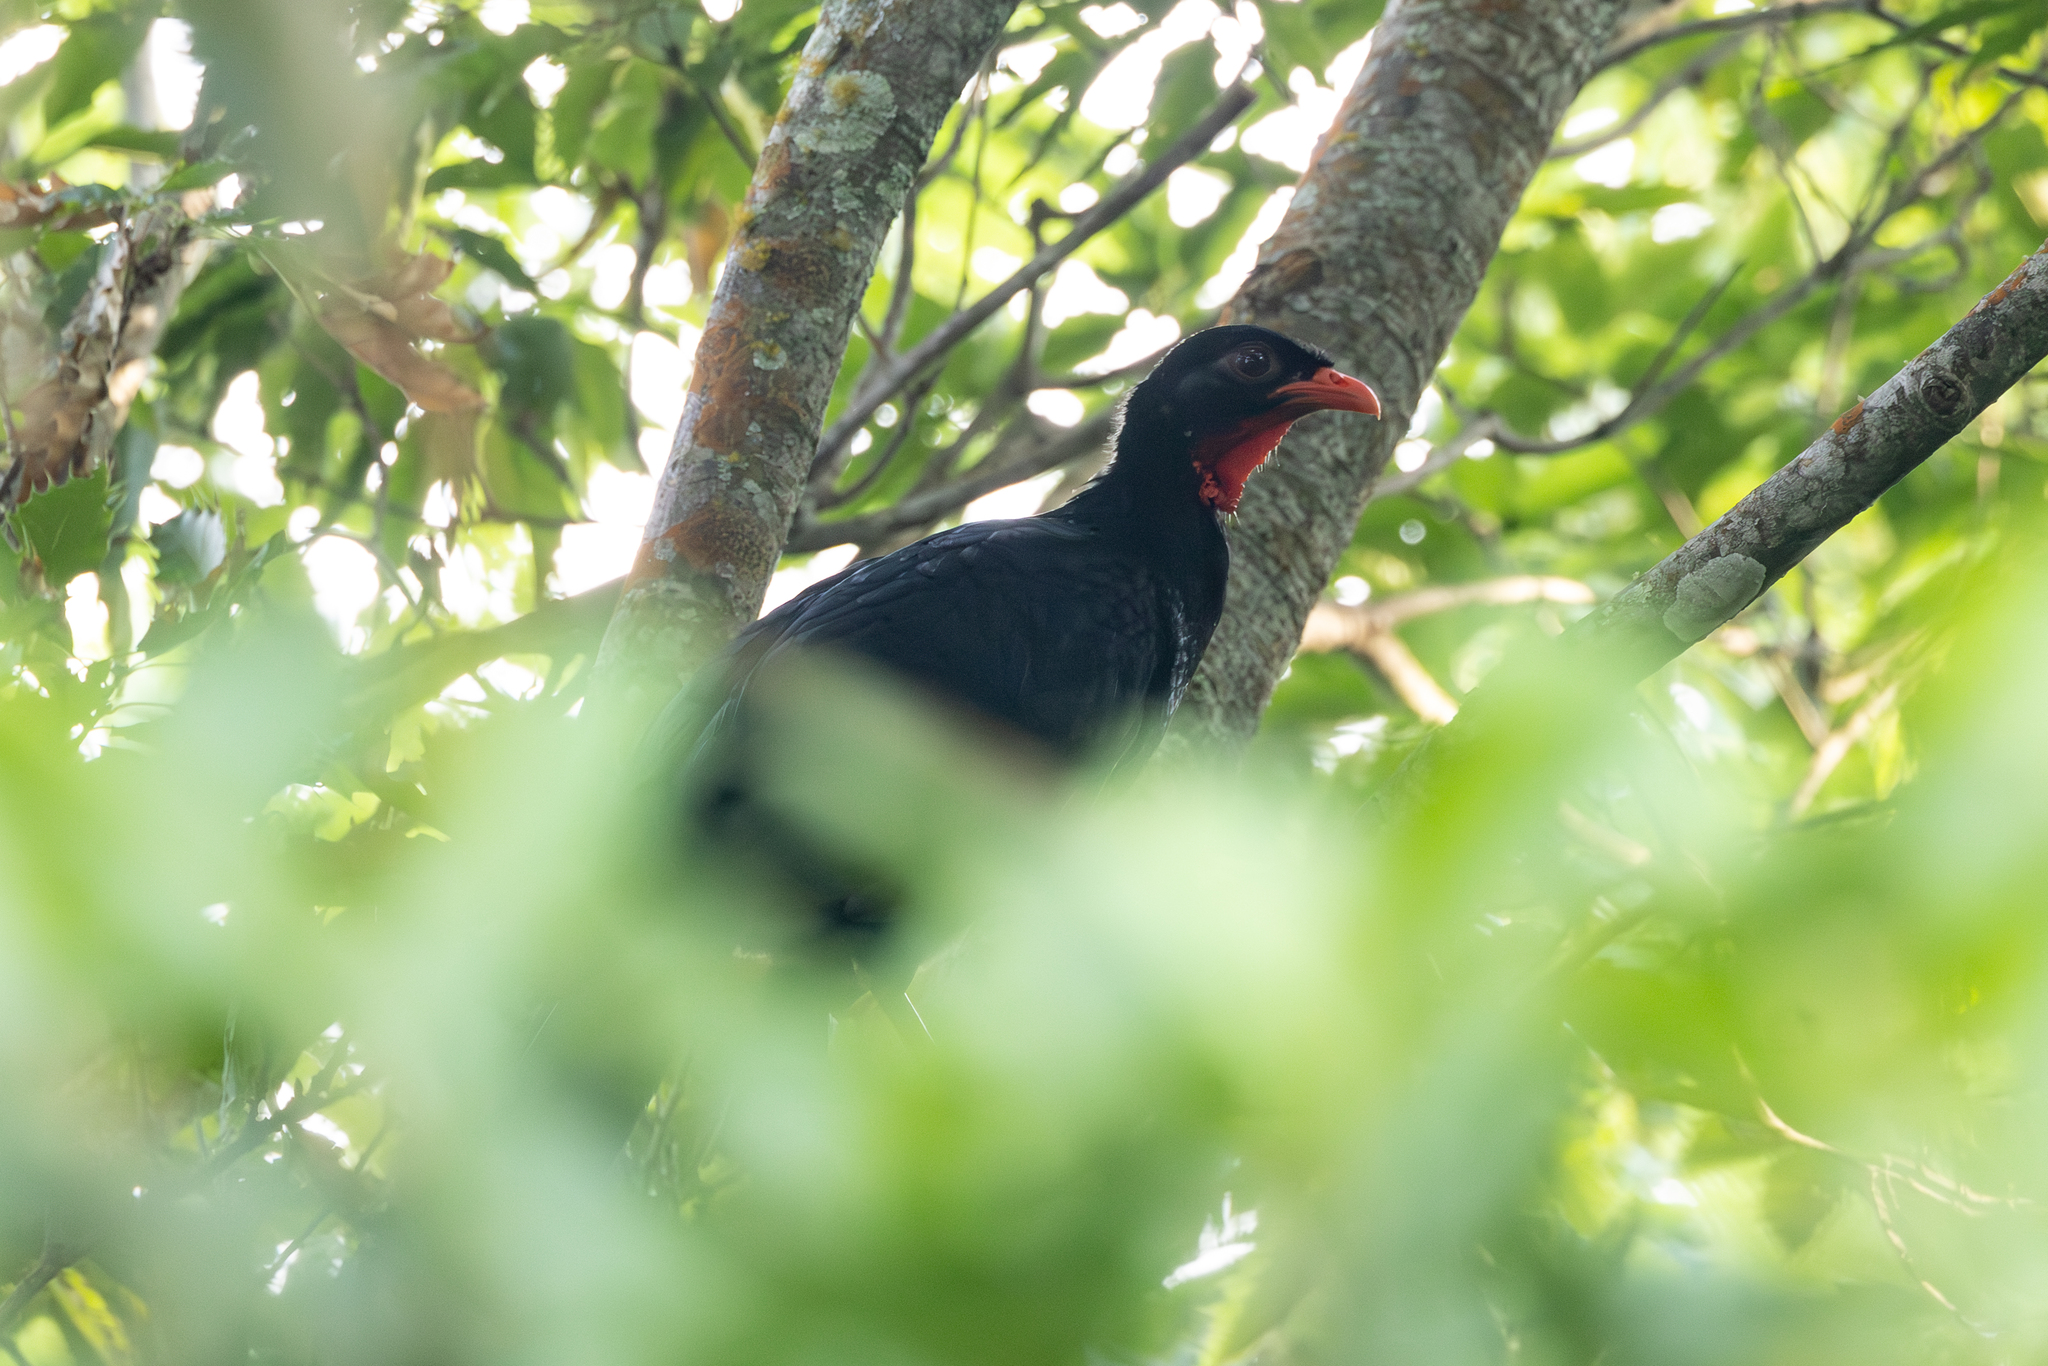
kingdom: Animalia
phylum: Chordata
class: Aves
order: Galliformes
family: Cracidae
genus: Penelopina
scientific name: Penelopina nigra
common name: Highland guan
